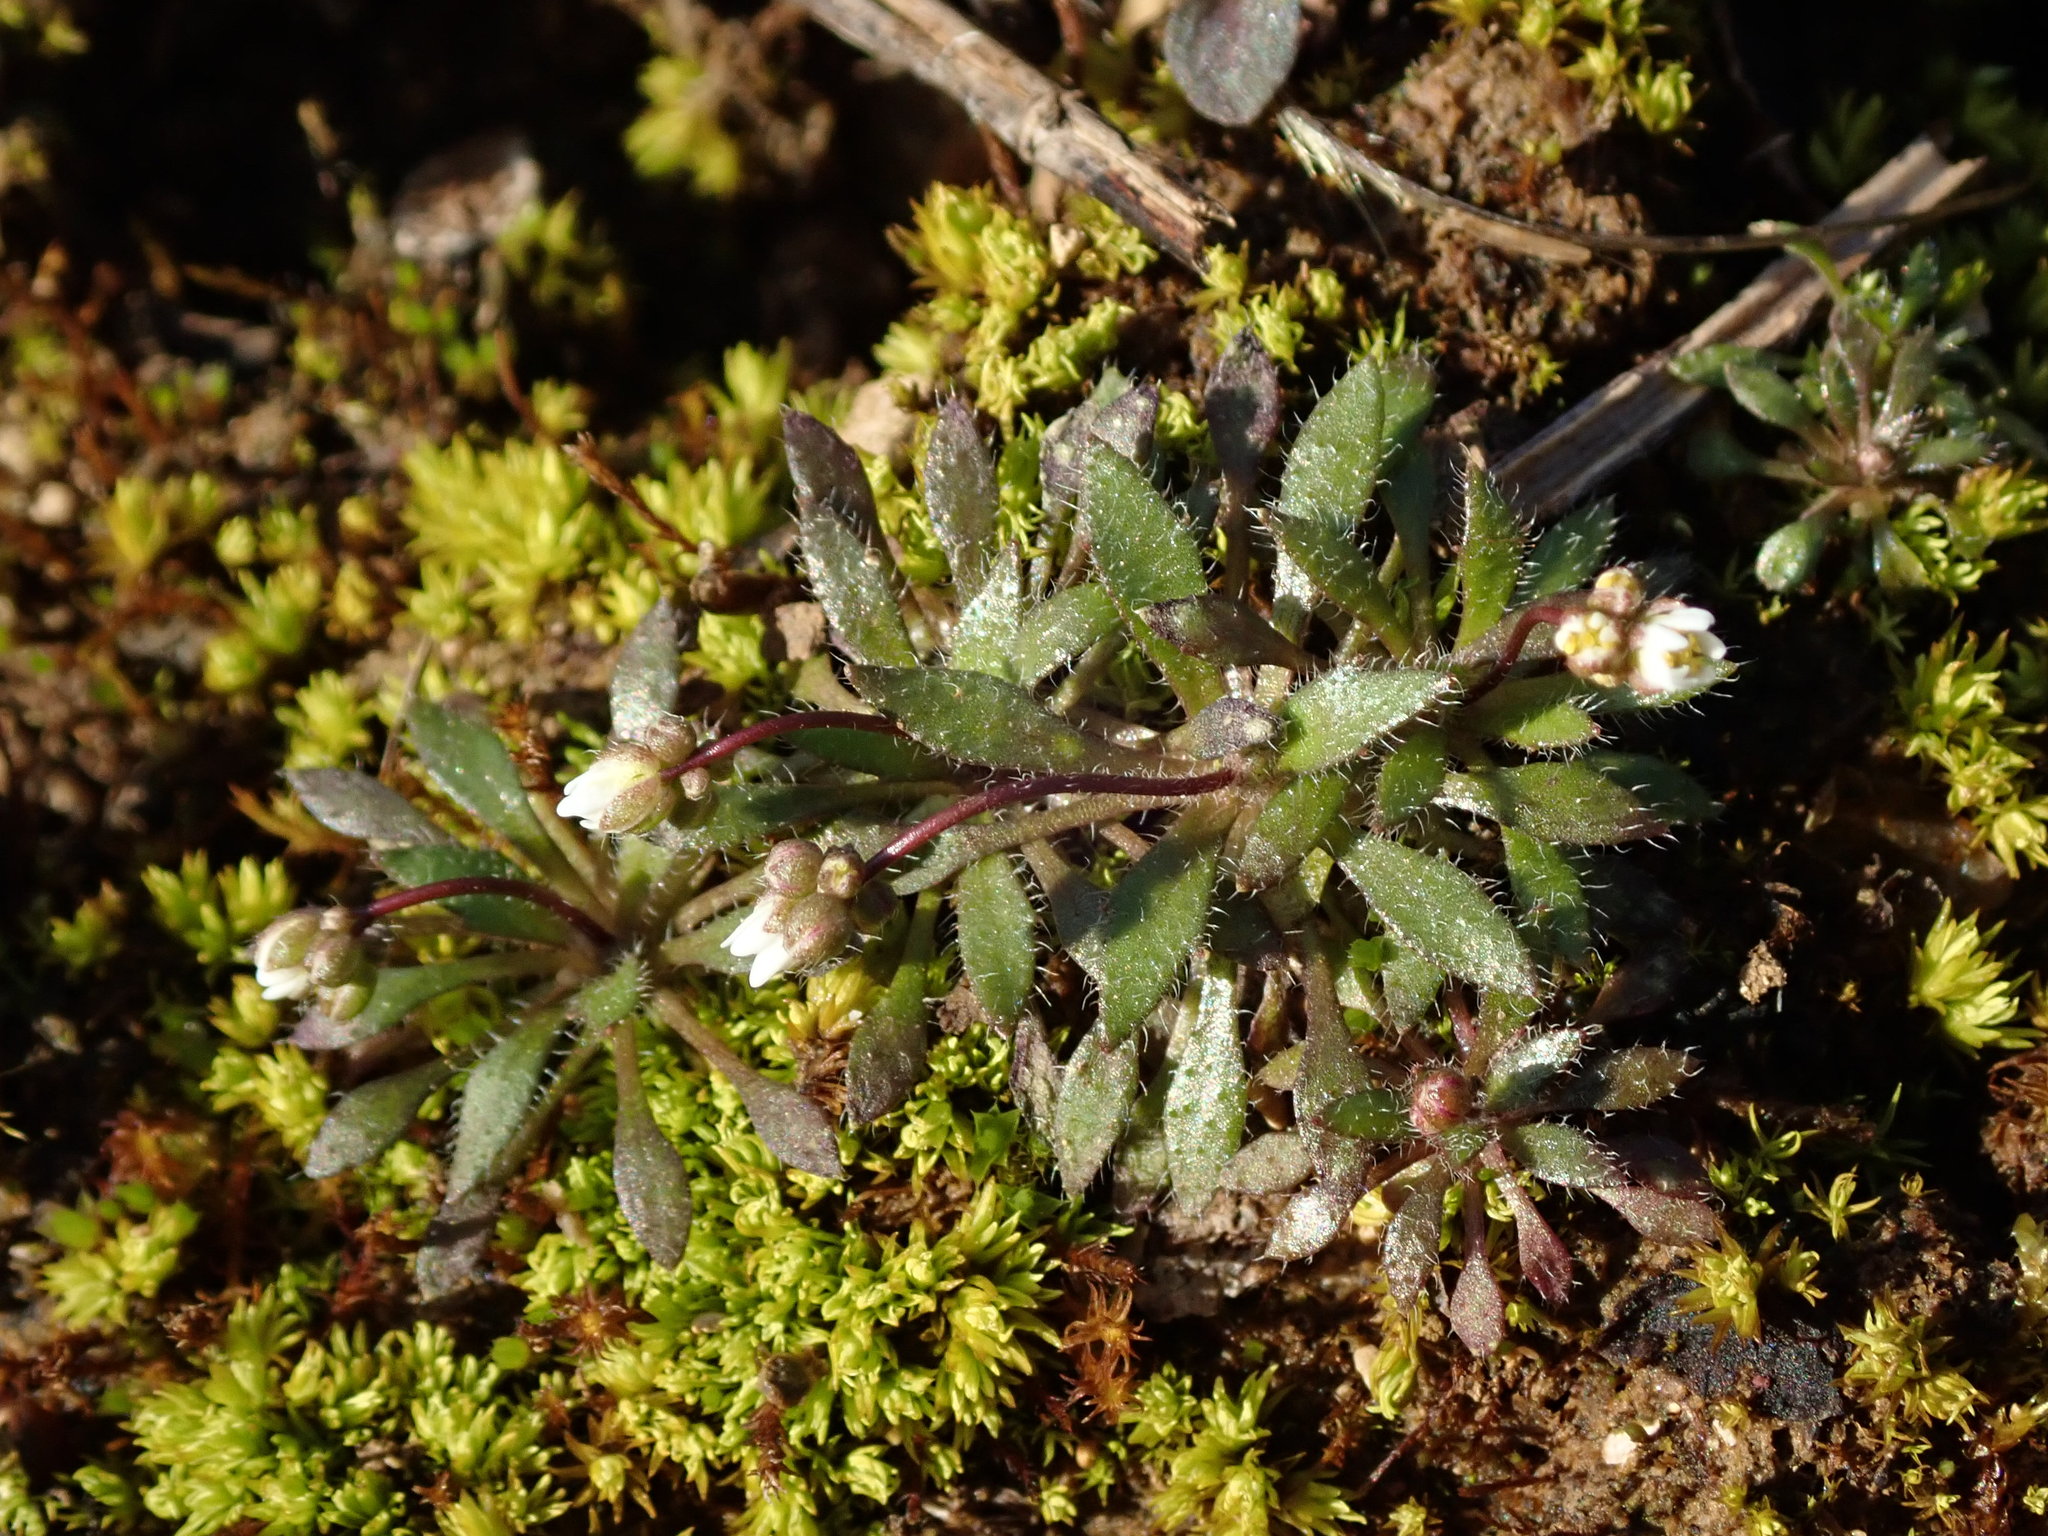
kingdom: Plantae
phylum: Tracheophyta
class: Magnoliopsida
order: Brassicales
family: Brassicaceae
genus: Draba
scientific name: Draba verna
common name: Spring draba
